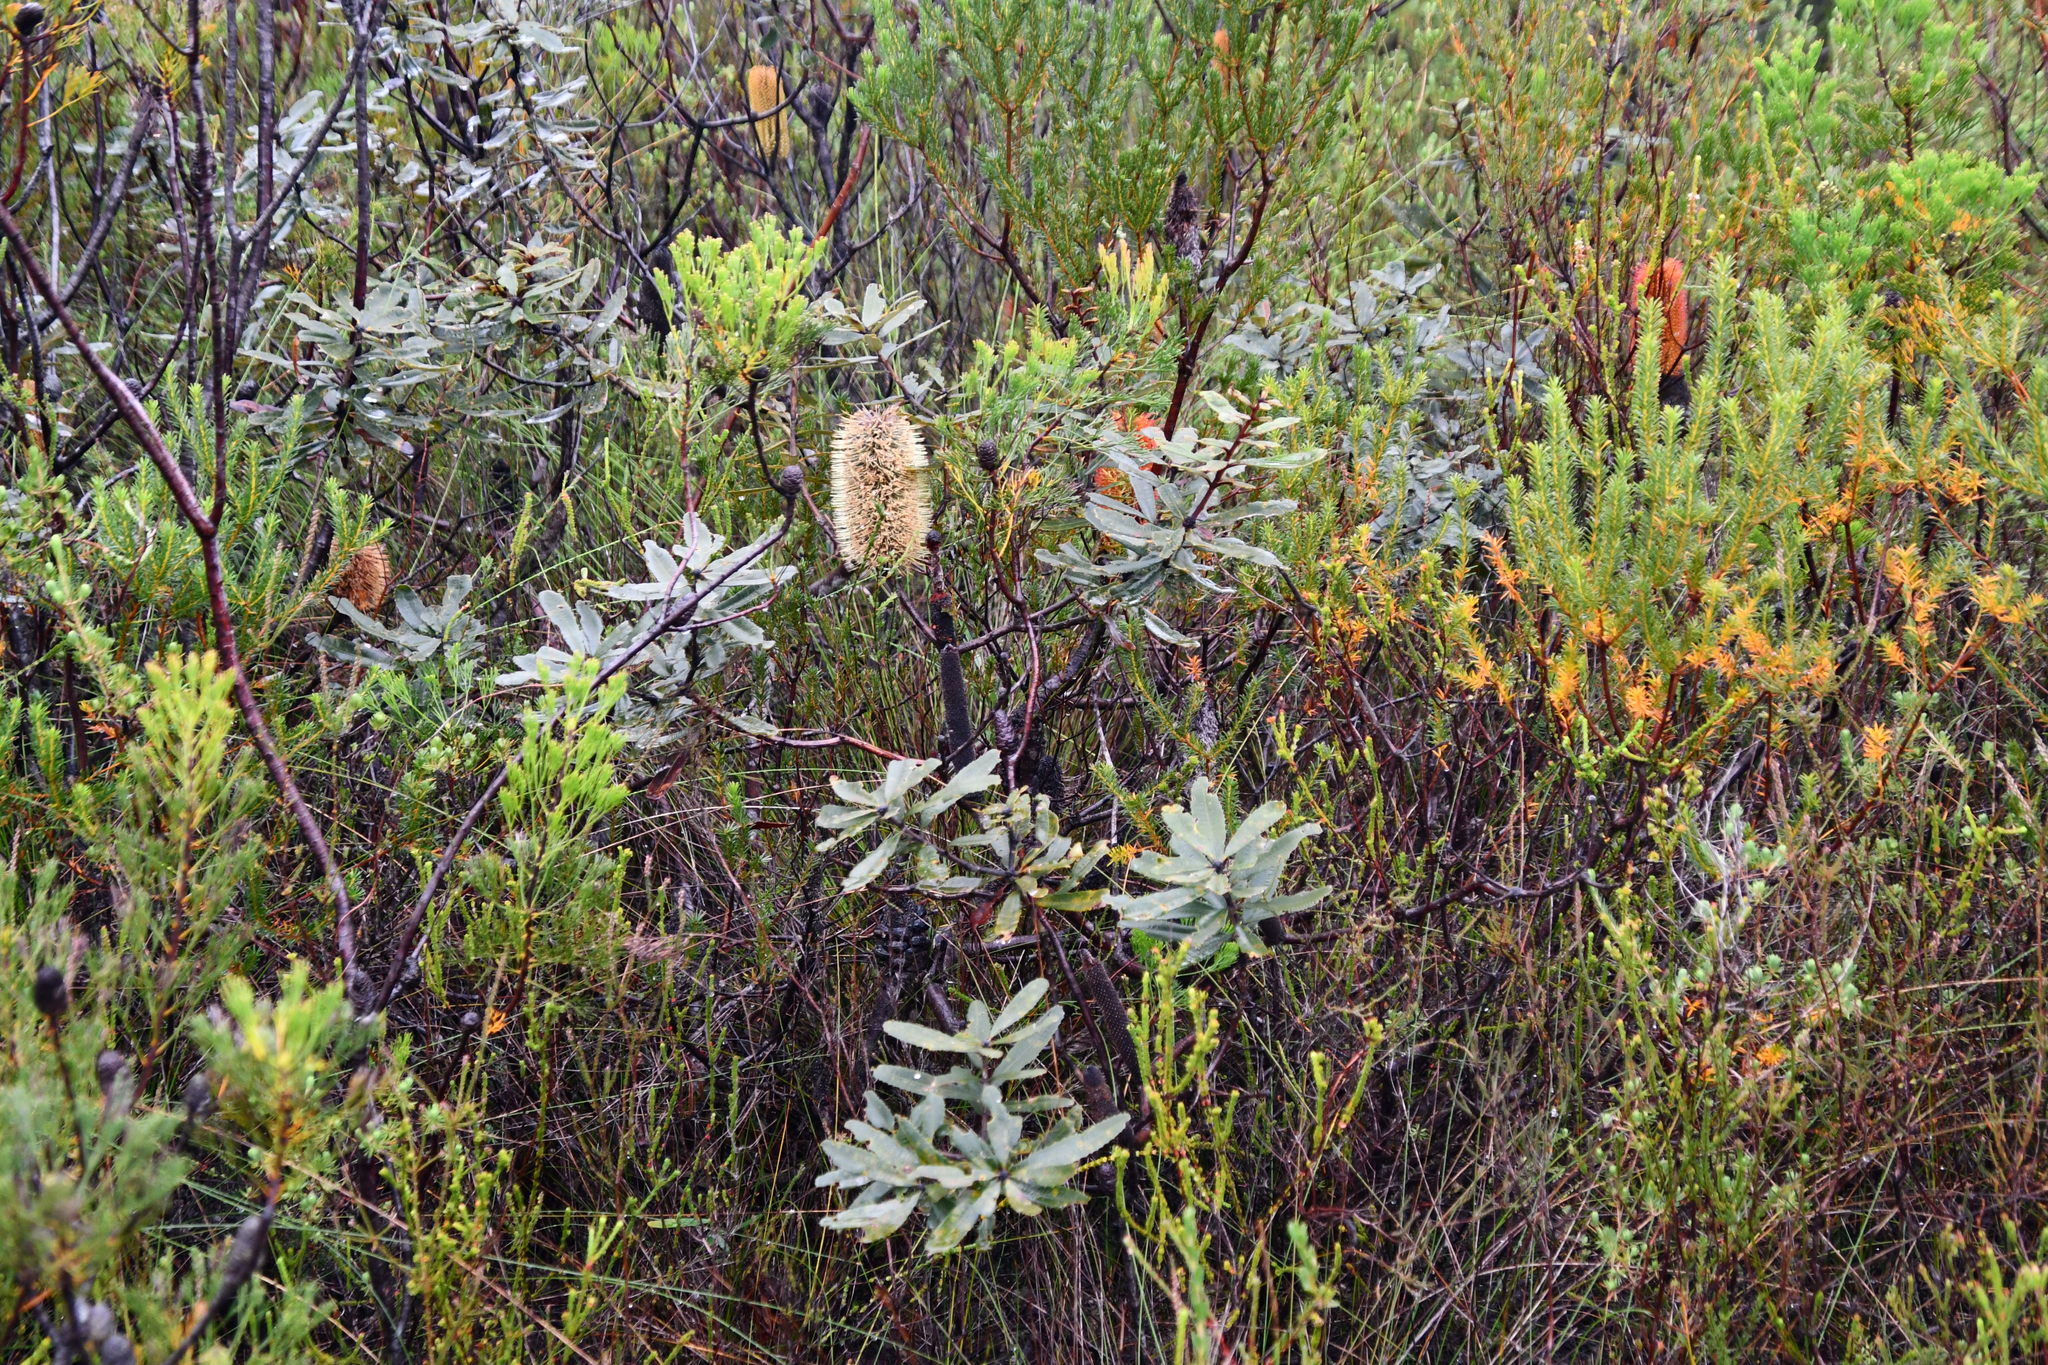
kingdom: Plantae
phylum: Tracheophyta
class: Magnoliopsida
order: Proteales
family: Proteaceae
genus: Banksia
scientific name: Banksia oblongifolia
